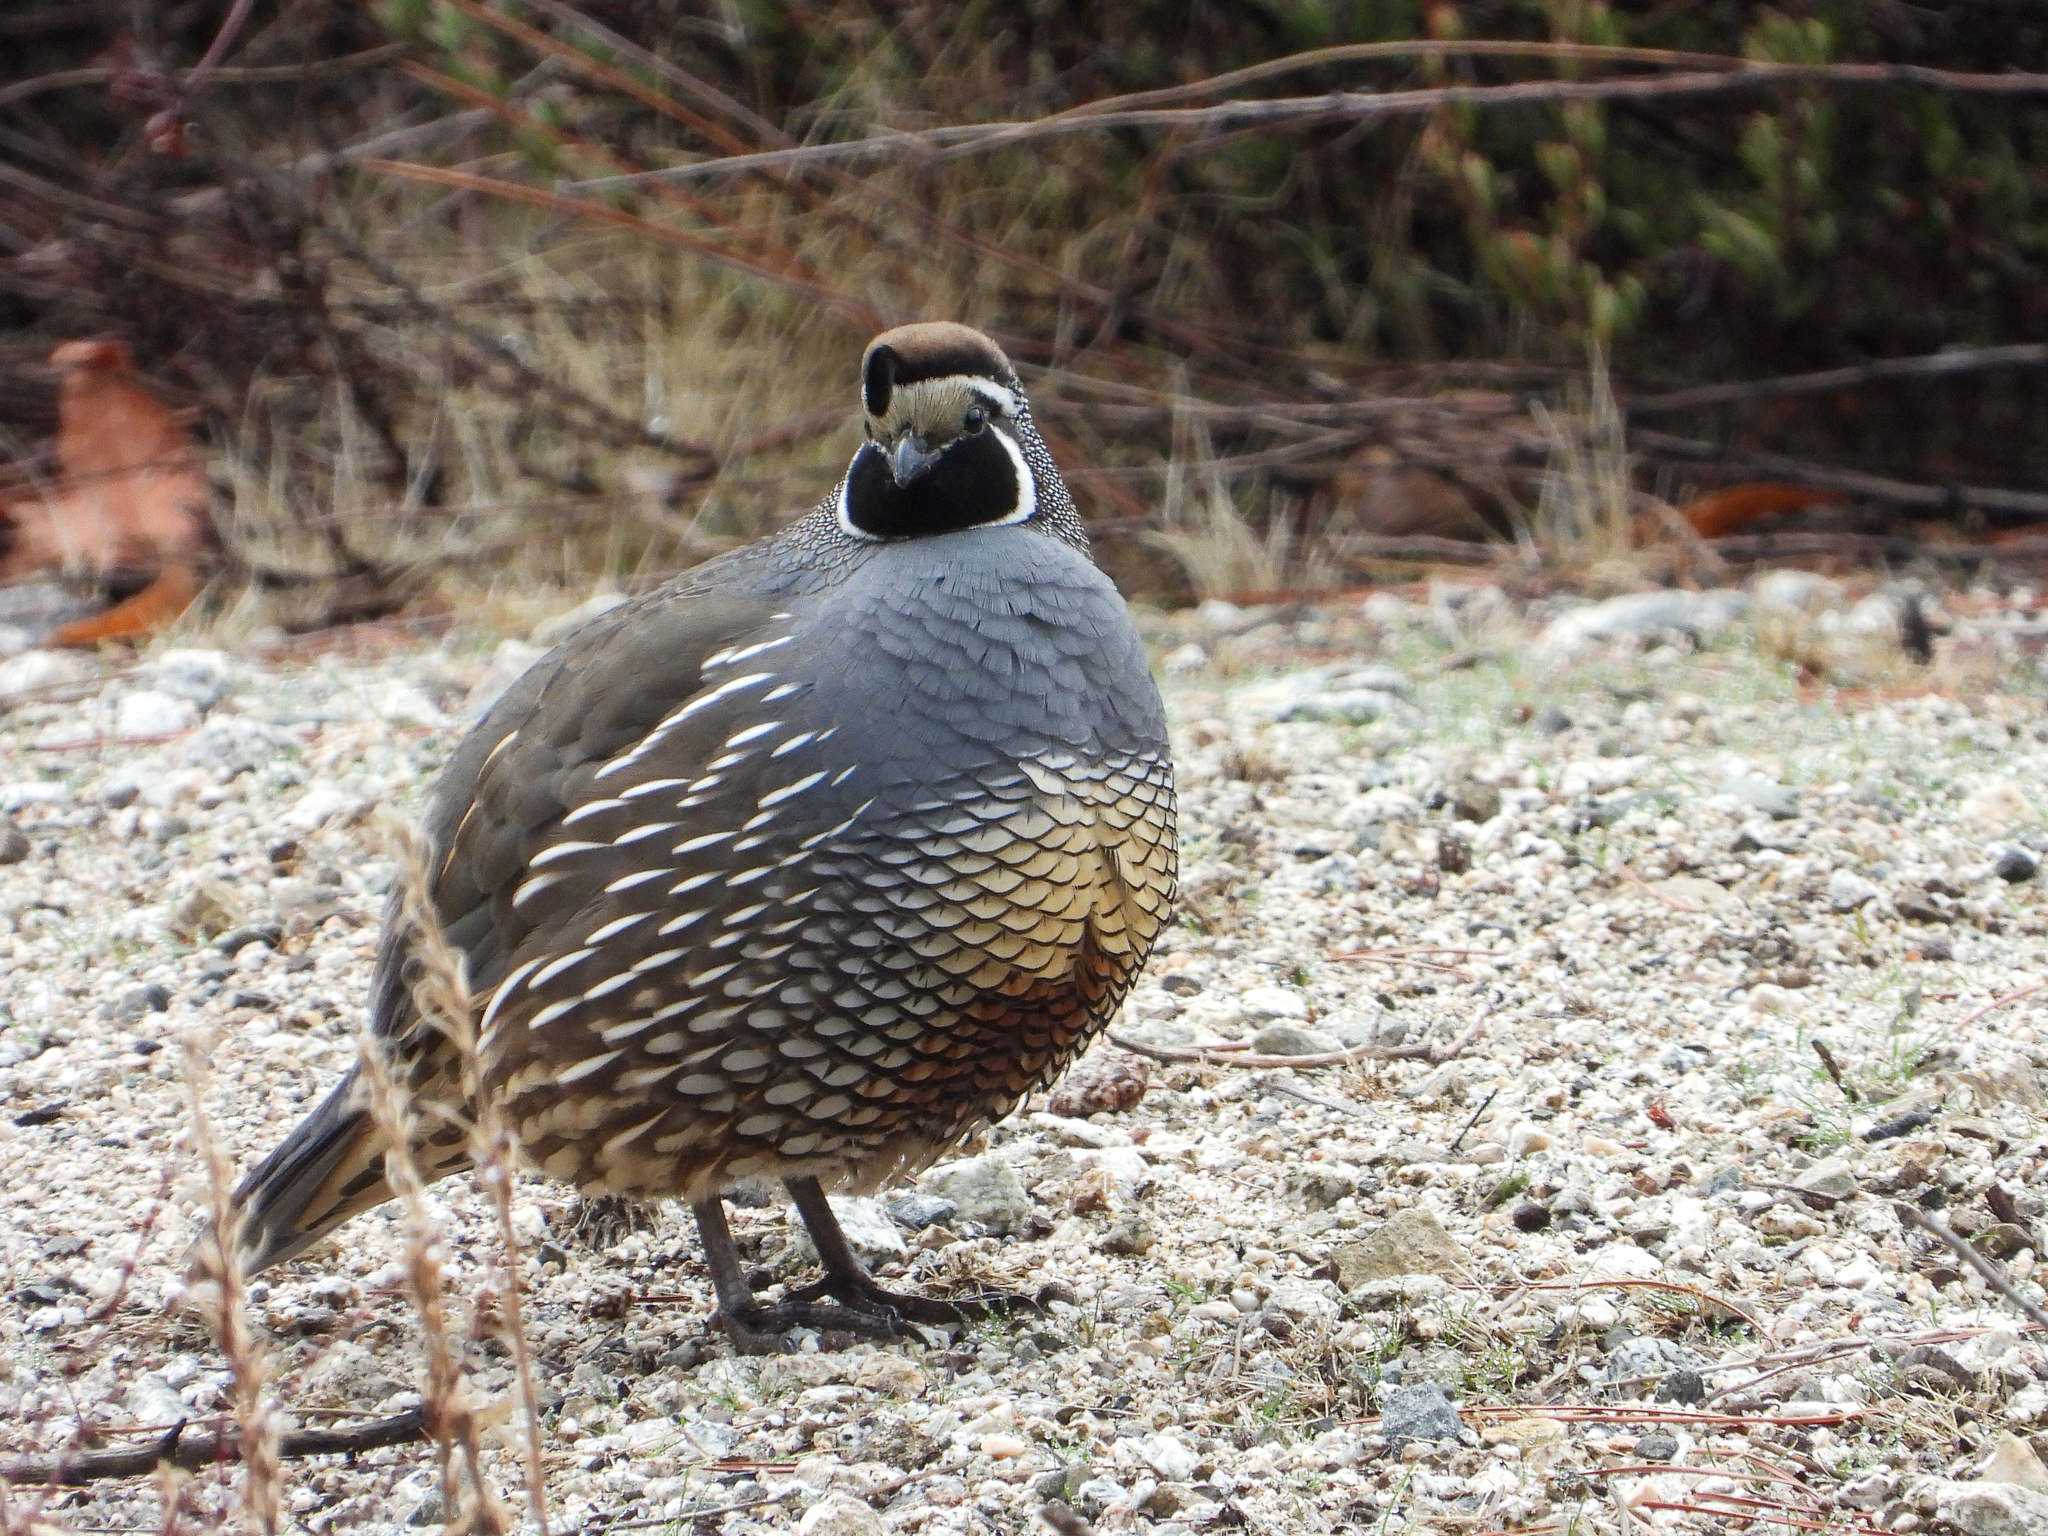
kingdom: Animalia
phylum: Chordata
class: Aves
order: Galliformes
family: Odontophoridae
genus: Callipepla
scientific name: Callipepla californica
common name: California quail
